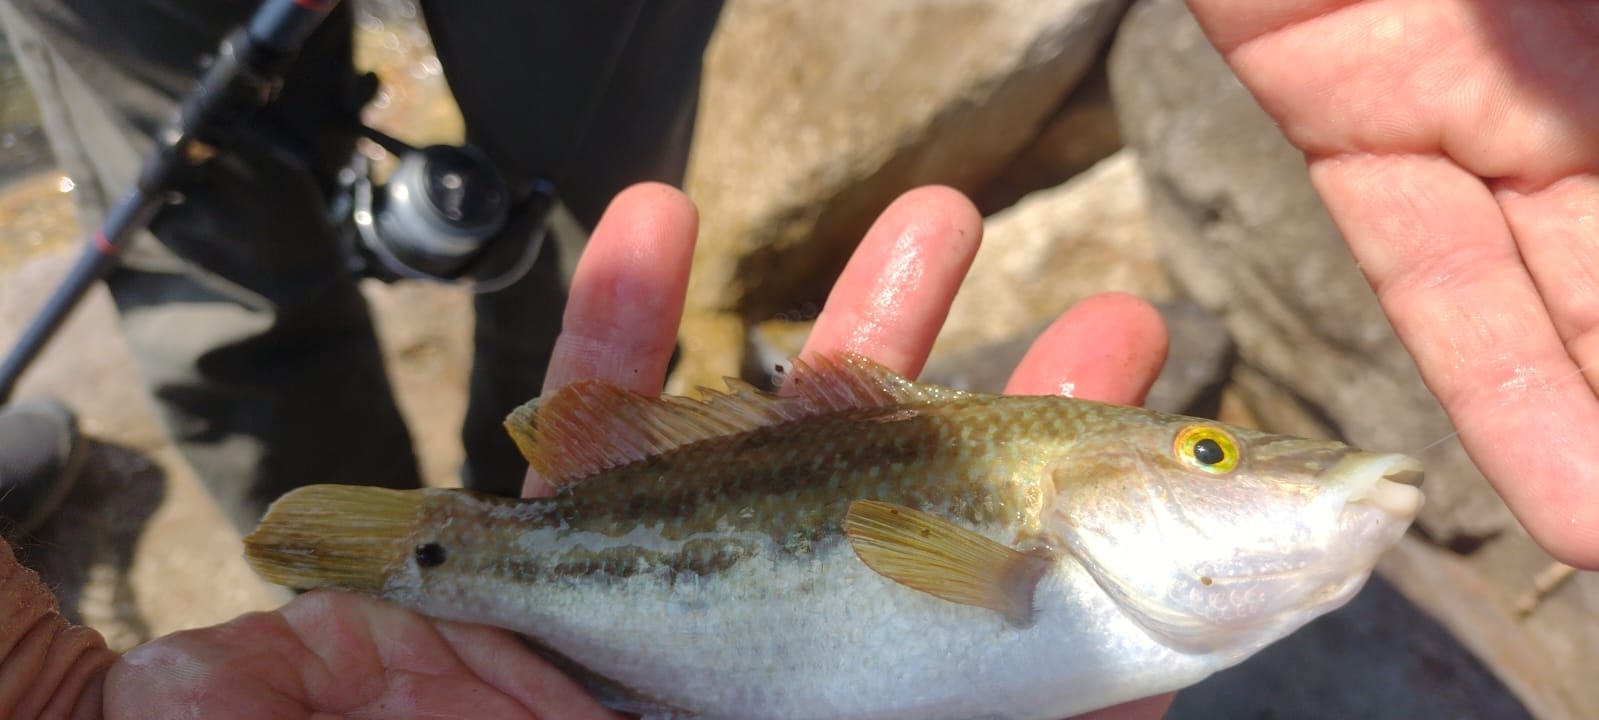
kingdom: Animalia
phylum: Chordata
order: Perciformes
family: Labridae
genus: Symphodus
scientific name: Symphodus tinca
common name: Peacock wrasse
